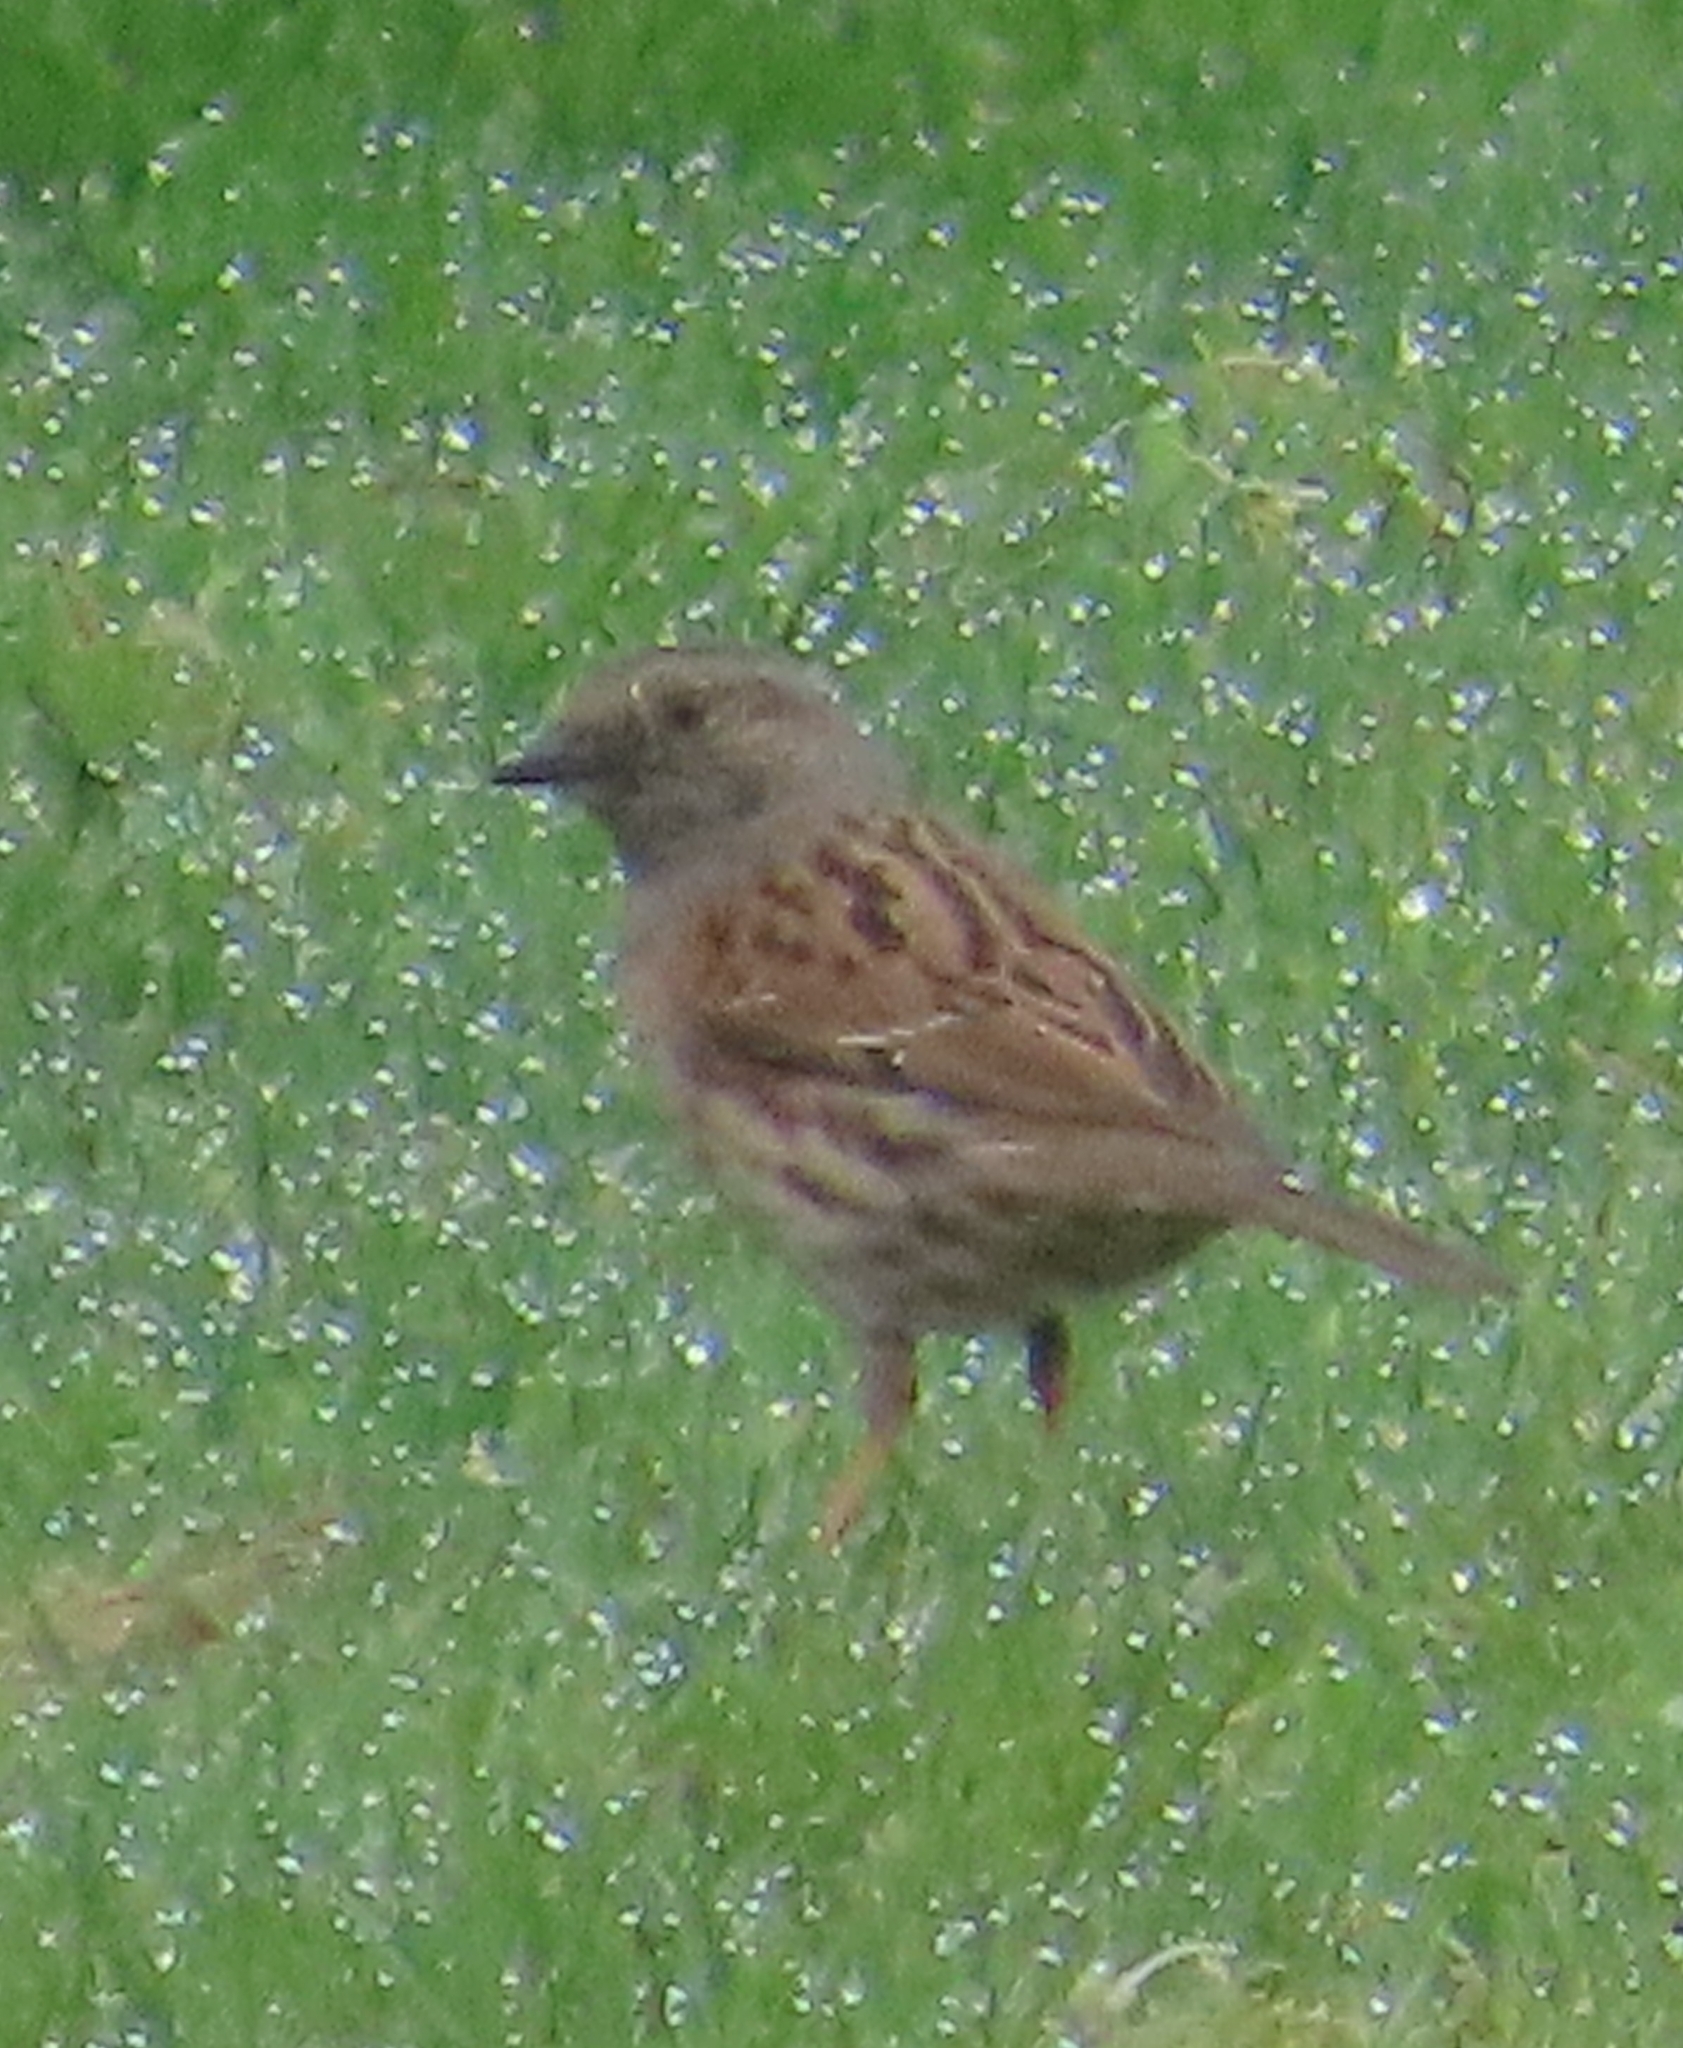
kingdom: Animalia
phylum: Chordata
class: Aves
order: Passeriformes
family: Prunellidae
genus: Prunella
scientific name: Prunella modularis
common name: Dunnock
